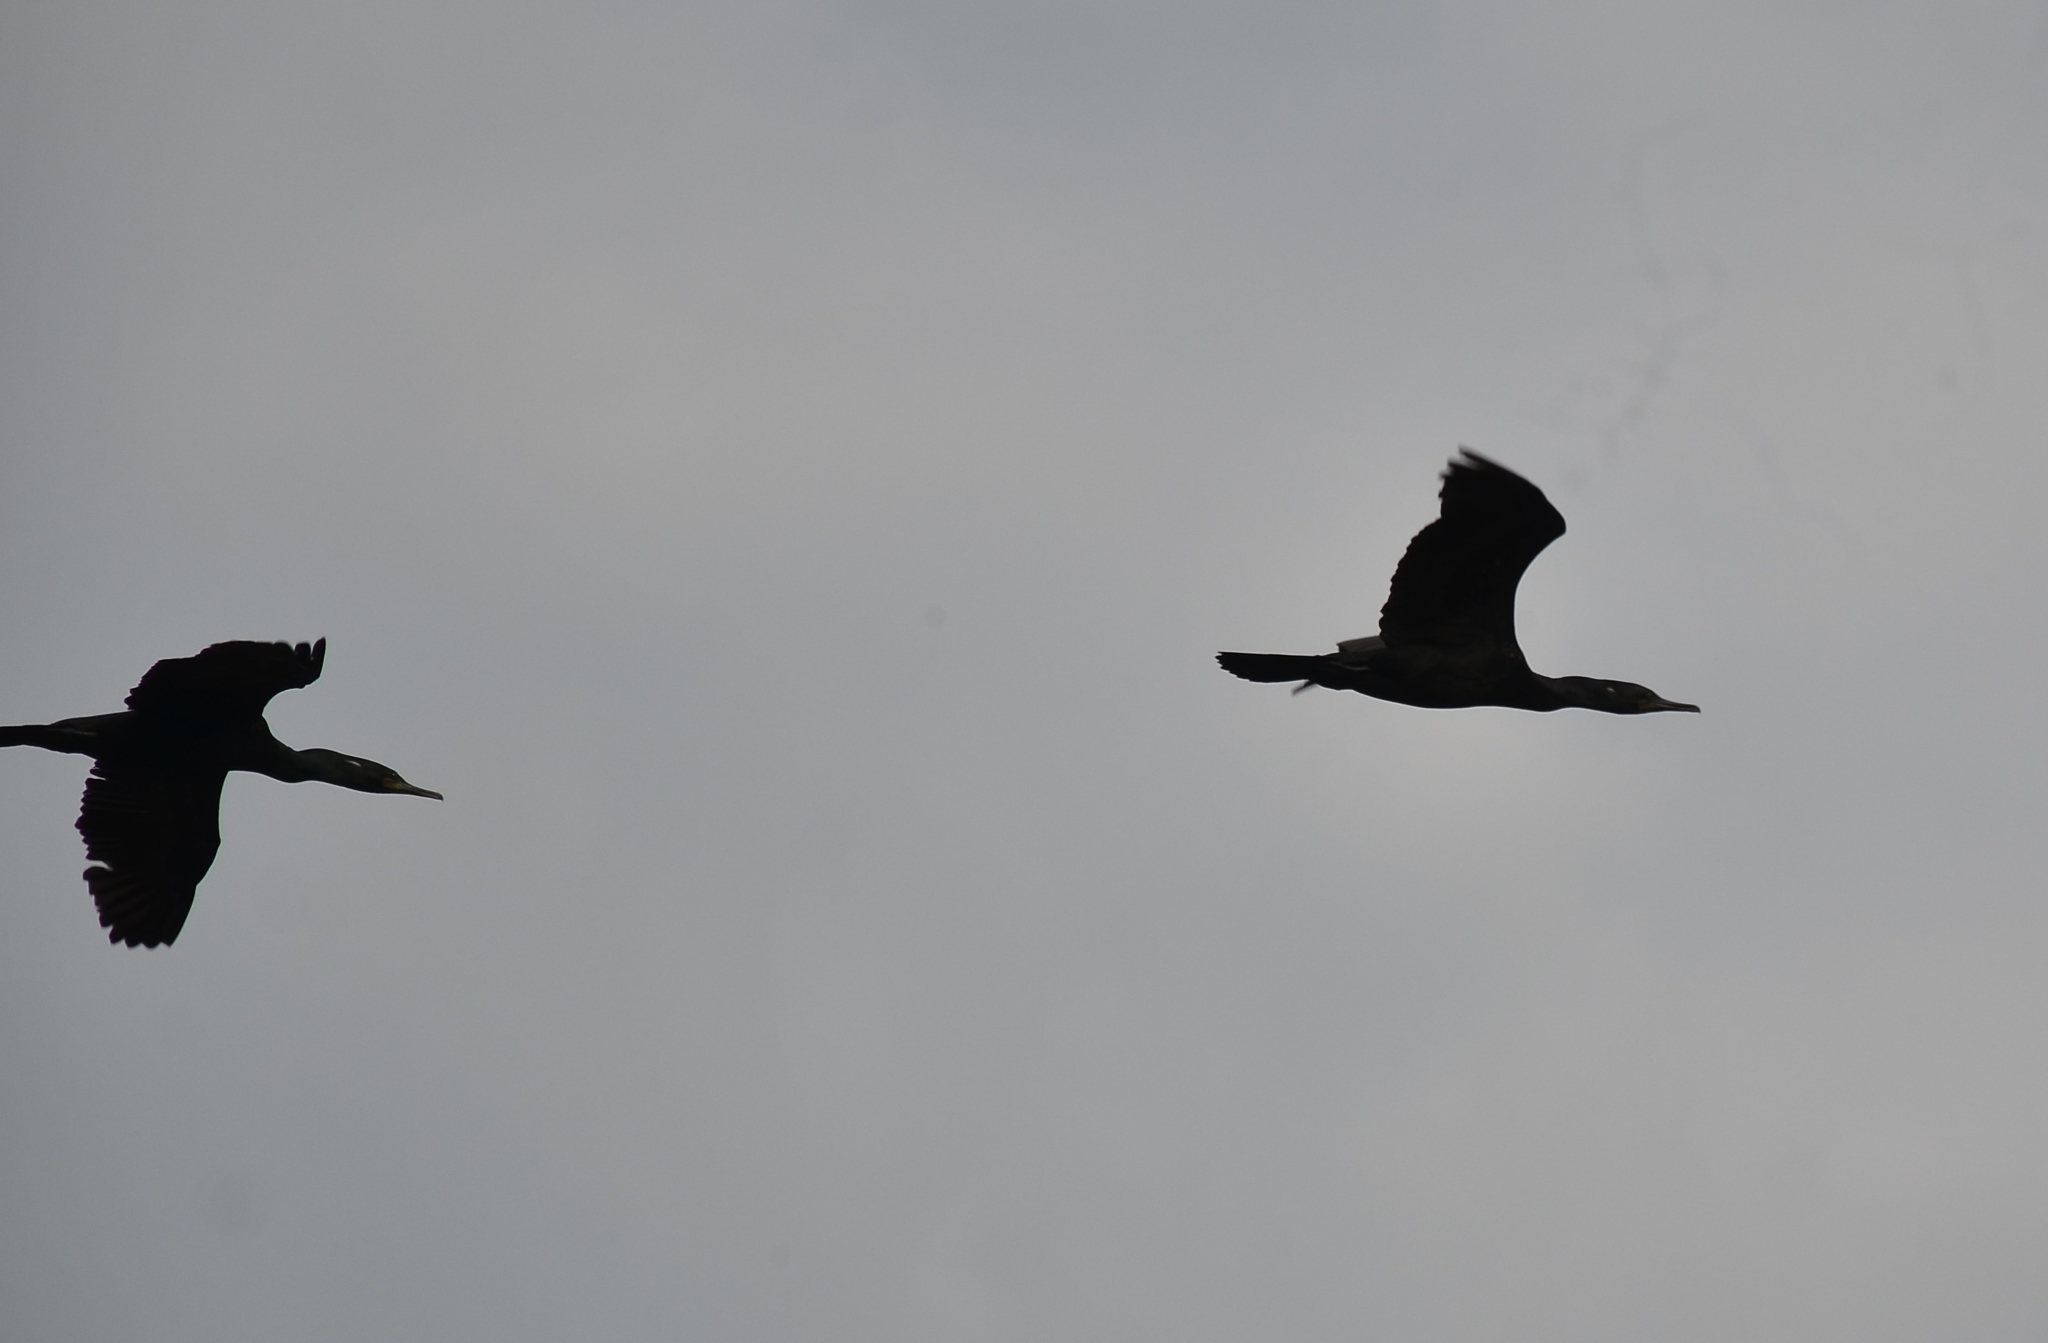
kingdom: Animalia
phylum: Chordata
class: Aves
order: Suliformes
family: Phalacrocoracidae
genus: Phalacrocorax
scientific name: Phalacrocorax fuscicollis
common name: Indian cormorant
